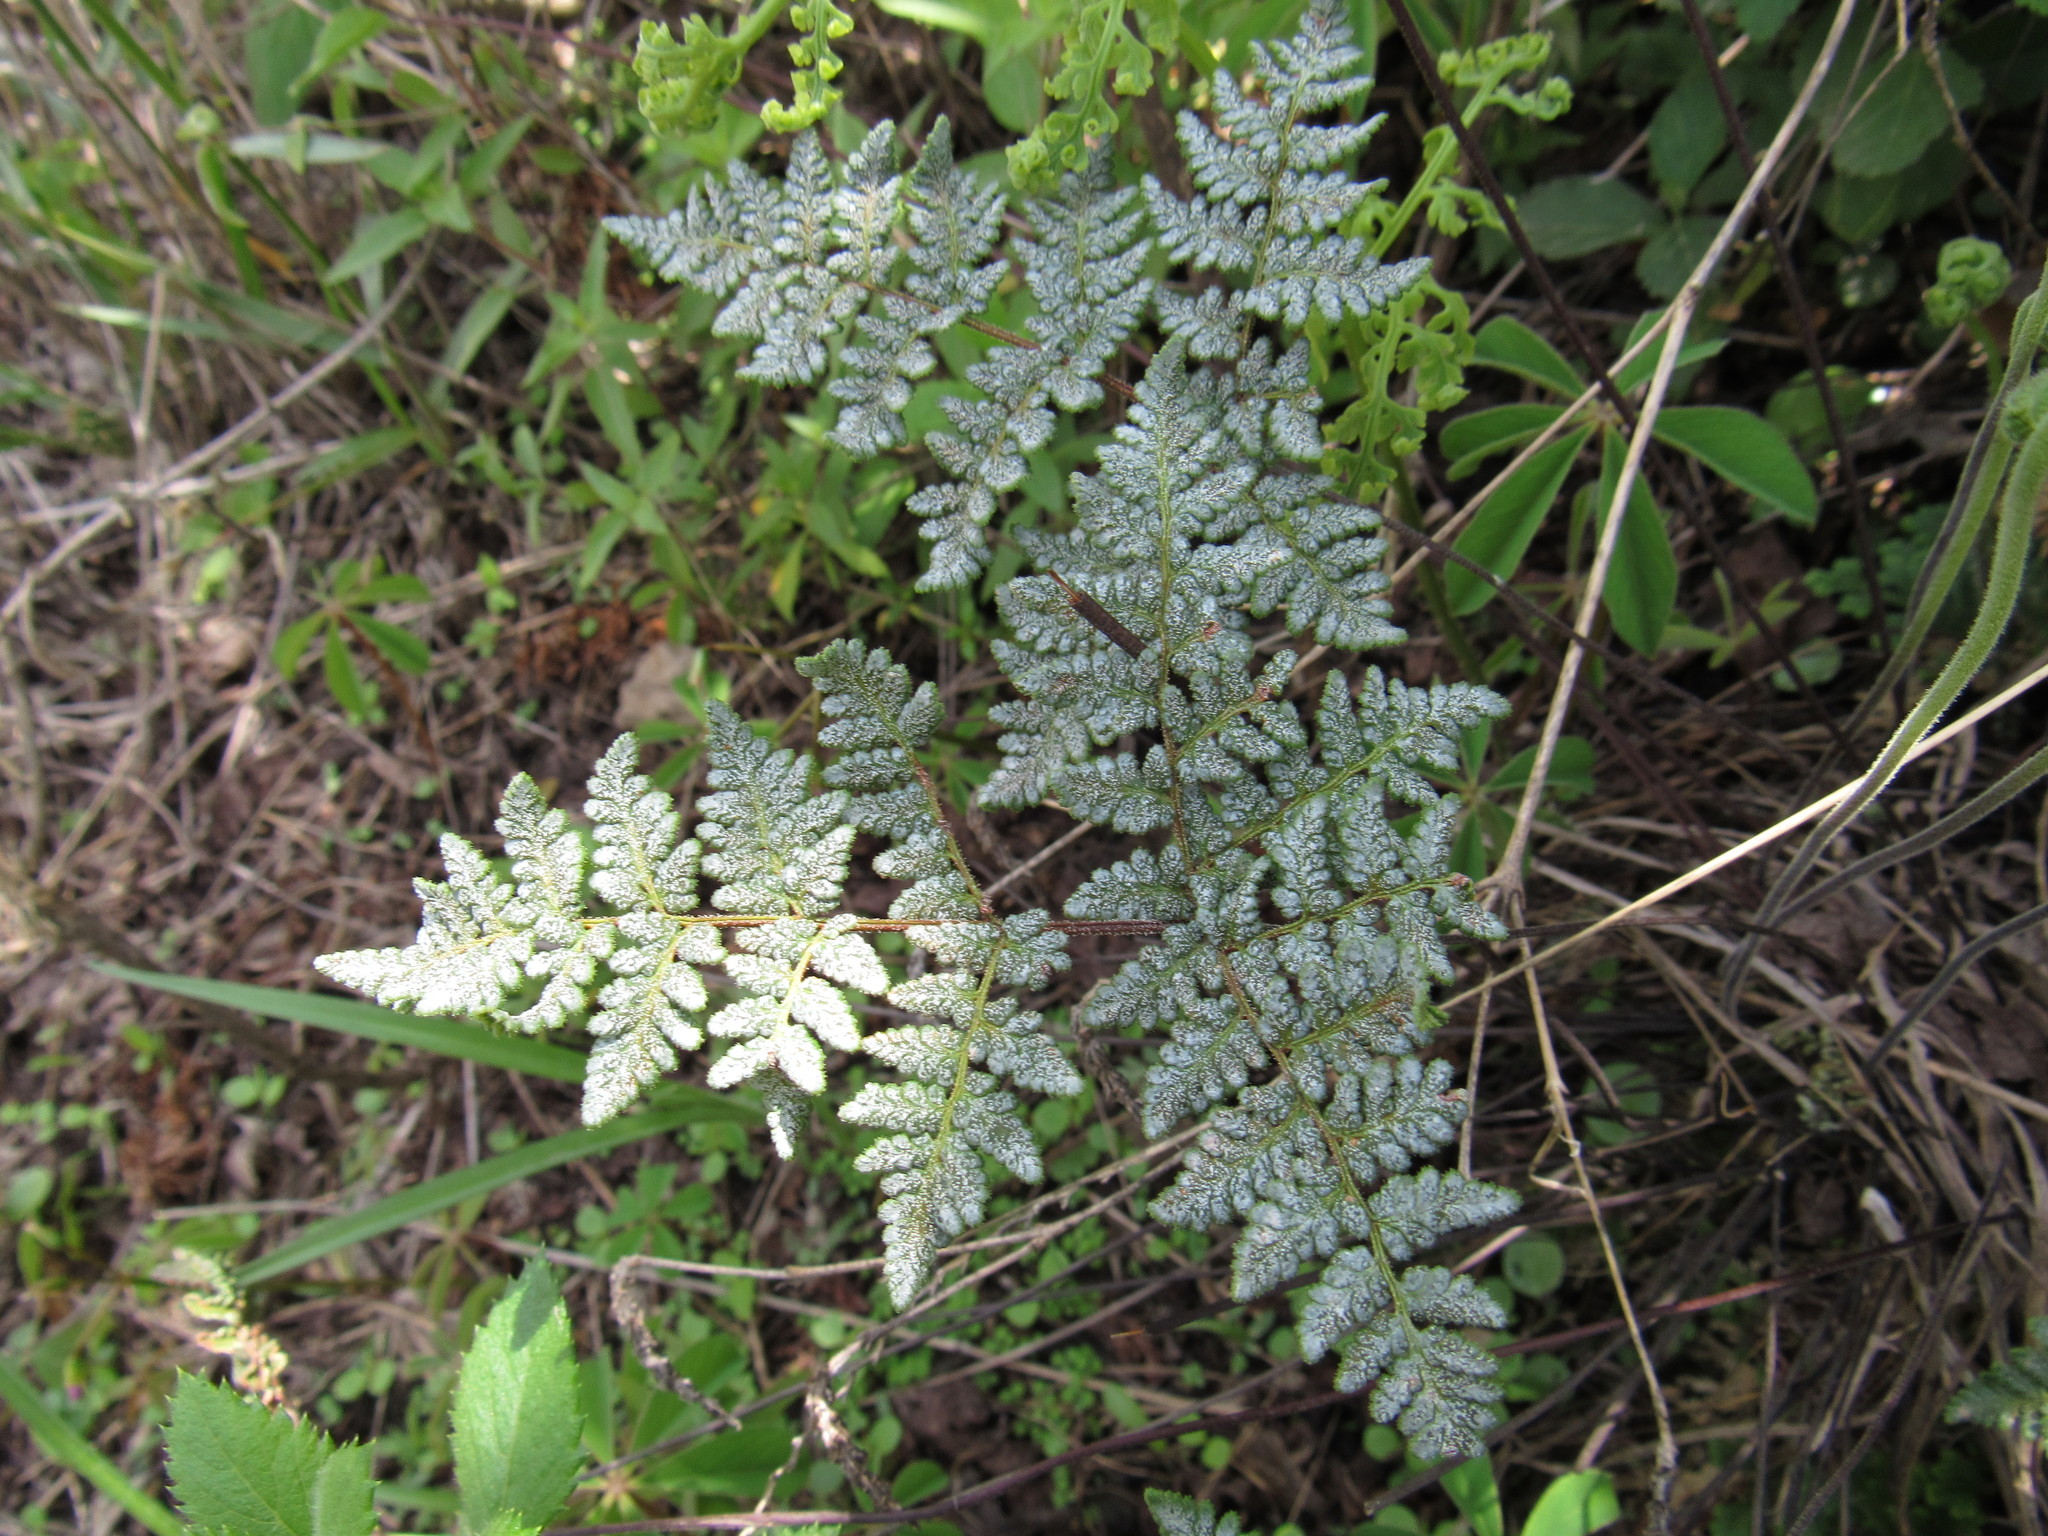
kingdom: Plantae
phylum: Tracheophyta
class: Polypodiopsida
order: Polypodiales
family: Pteridaceae
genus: Gaga
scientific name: Gaga kaulfussii
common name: Glandular lip fern
